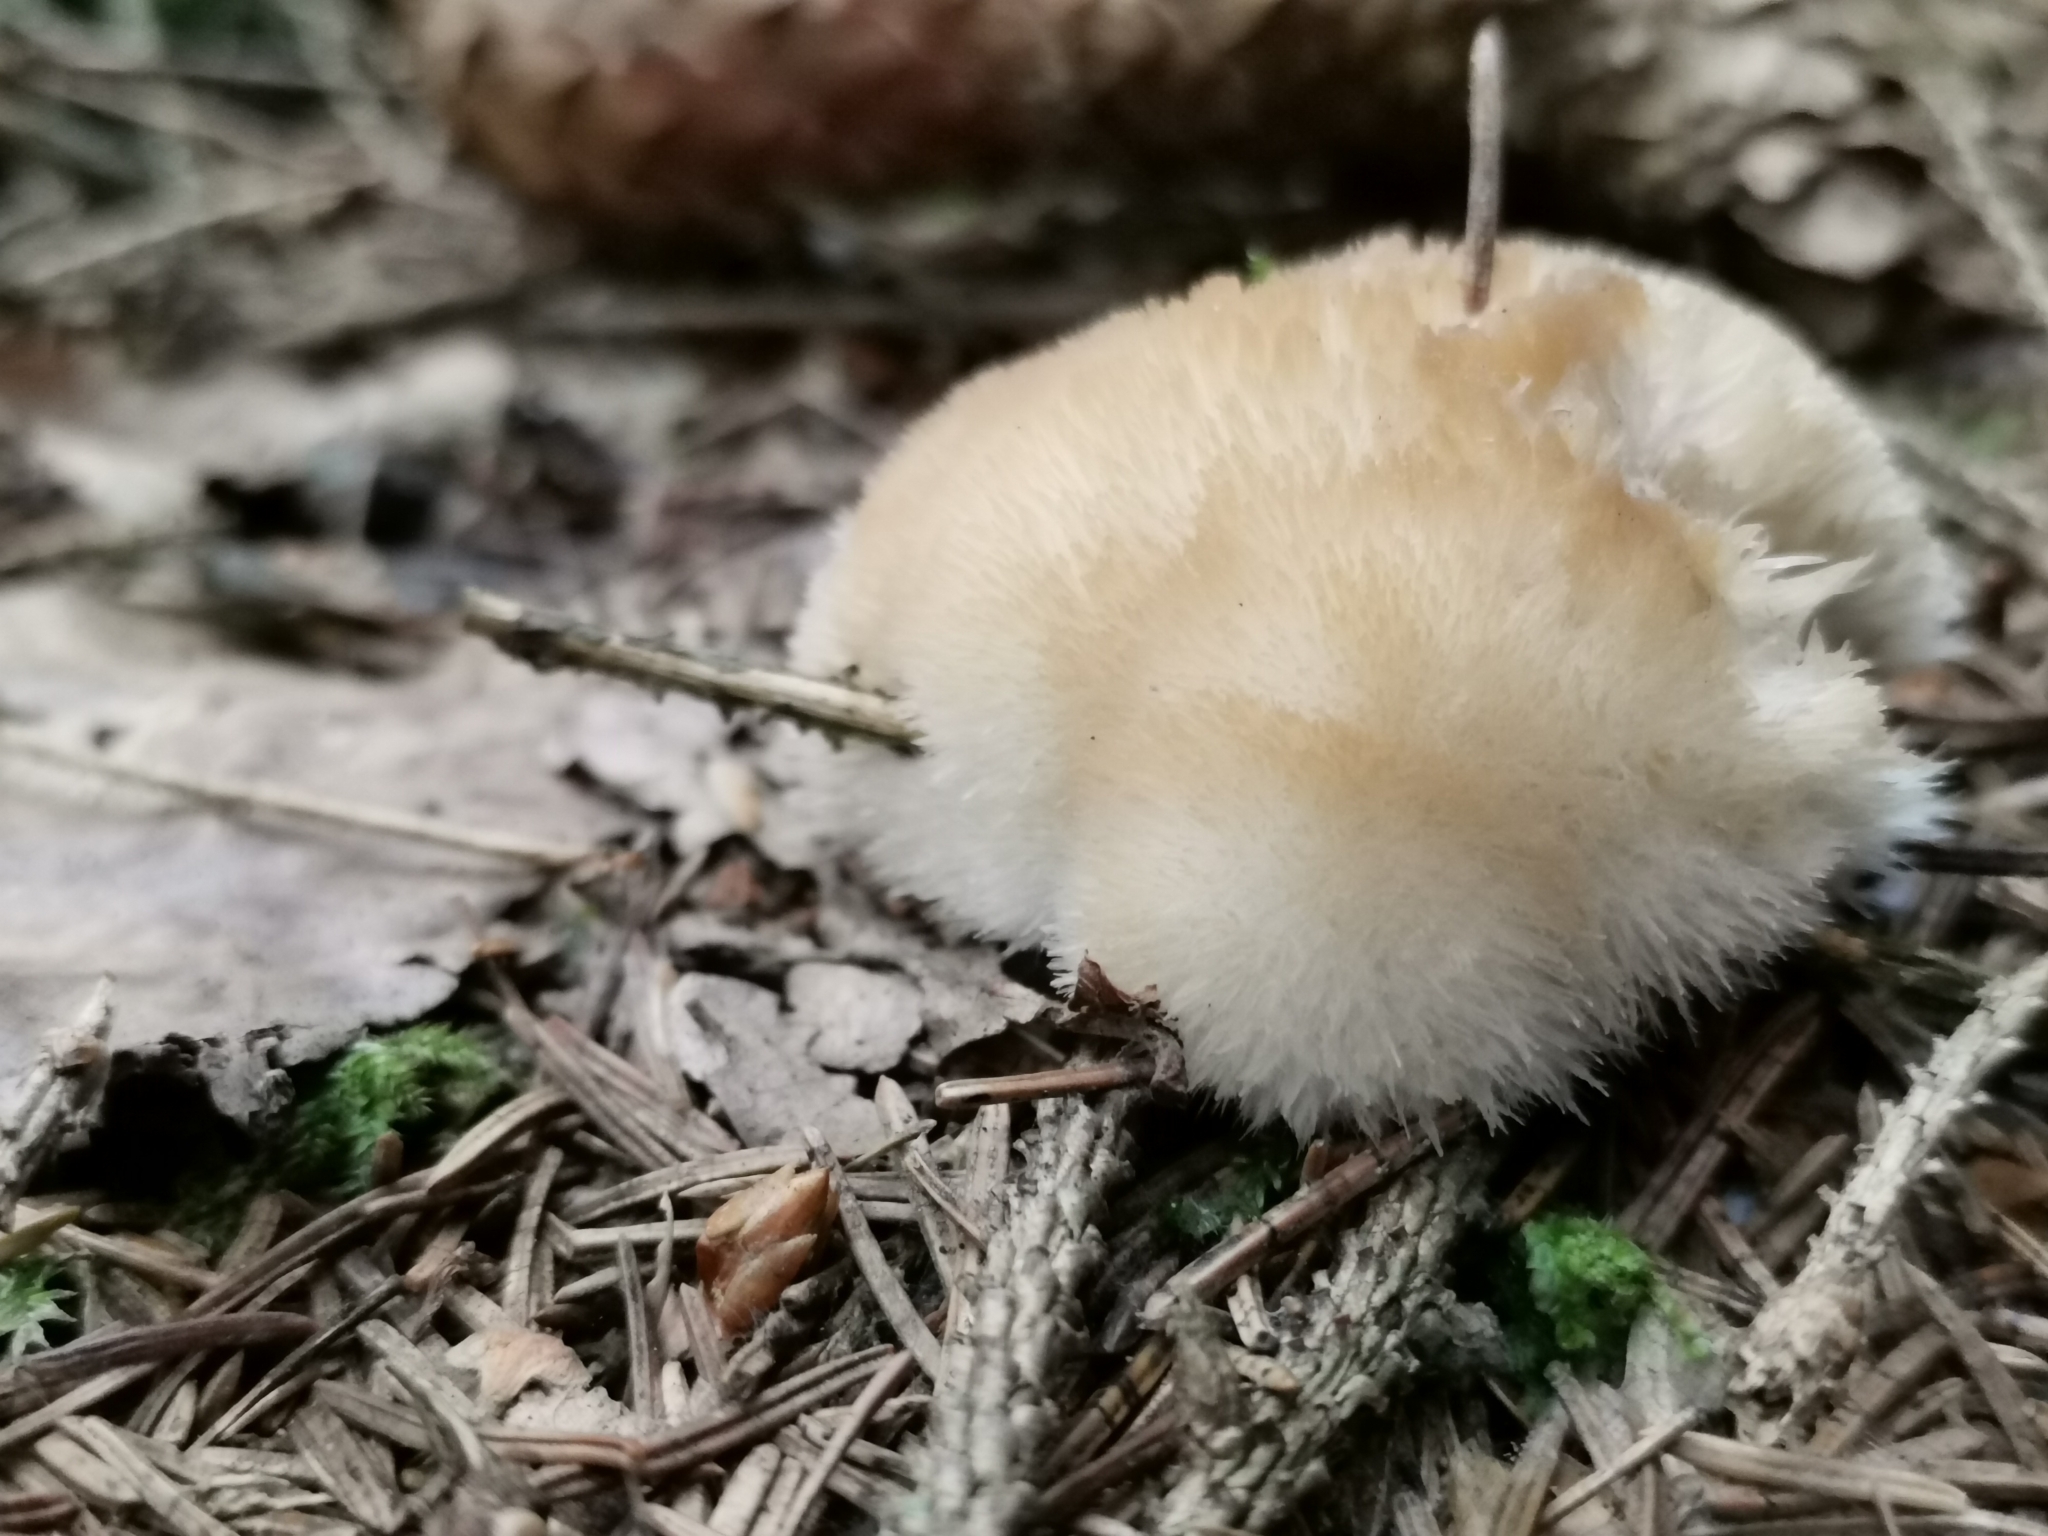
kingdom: Fungi
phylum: Basidiomycota
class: Agaricomycetes
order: Polyporales
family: Dacryobolaceae
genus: Postia
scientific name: Postia ptychogaster
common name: Powderpuff bracket
